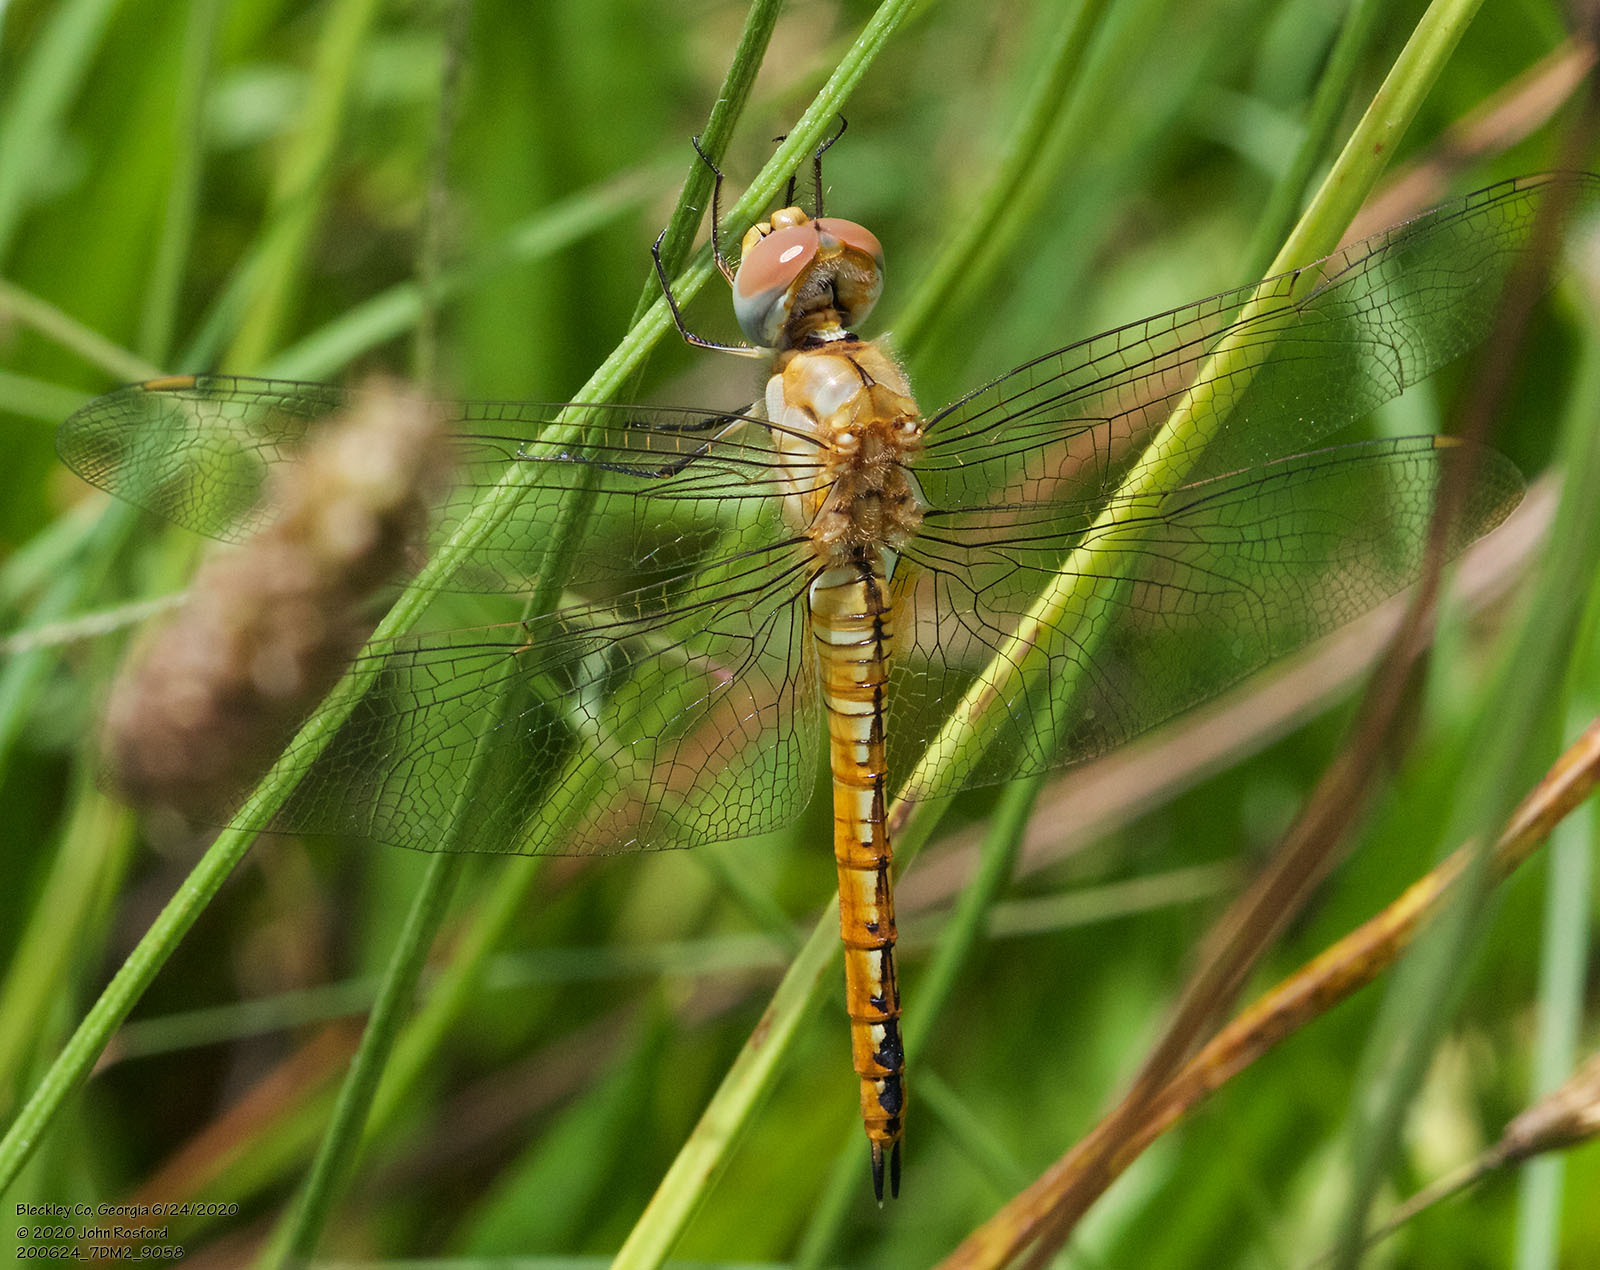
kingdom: Animalia
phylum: Arthropoda
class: Insecta
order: Odonata
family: Libellulidae
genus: Pantala
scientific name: Pantala flavescens
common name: Wandering glider
